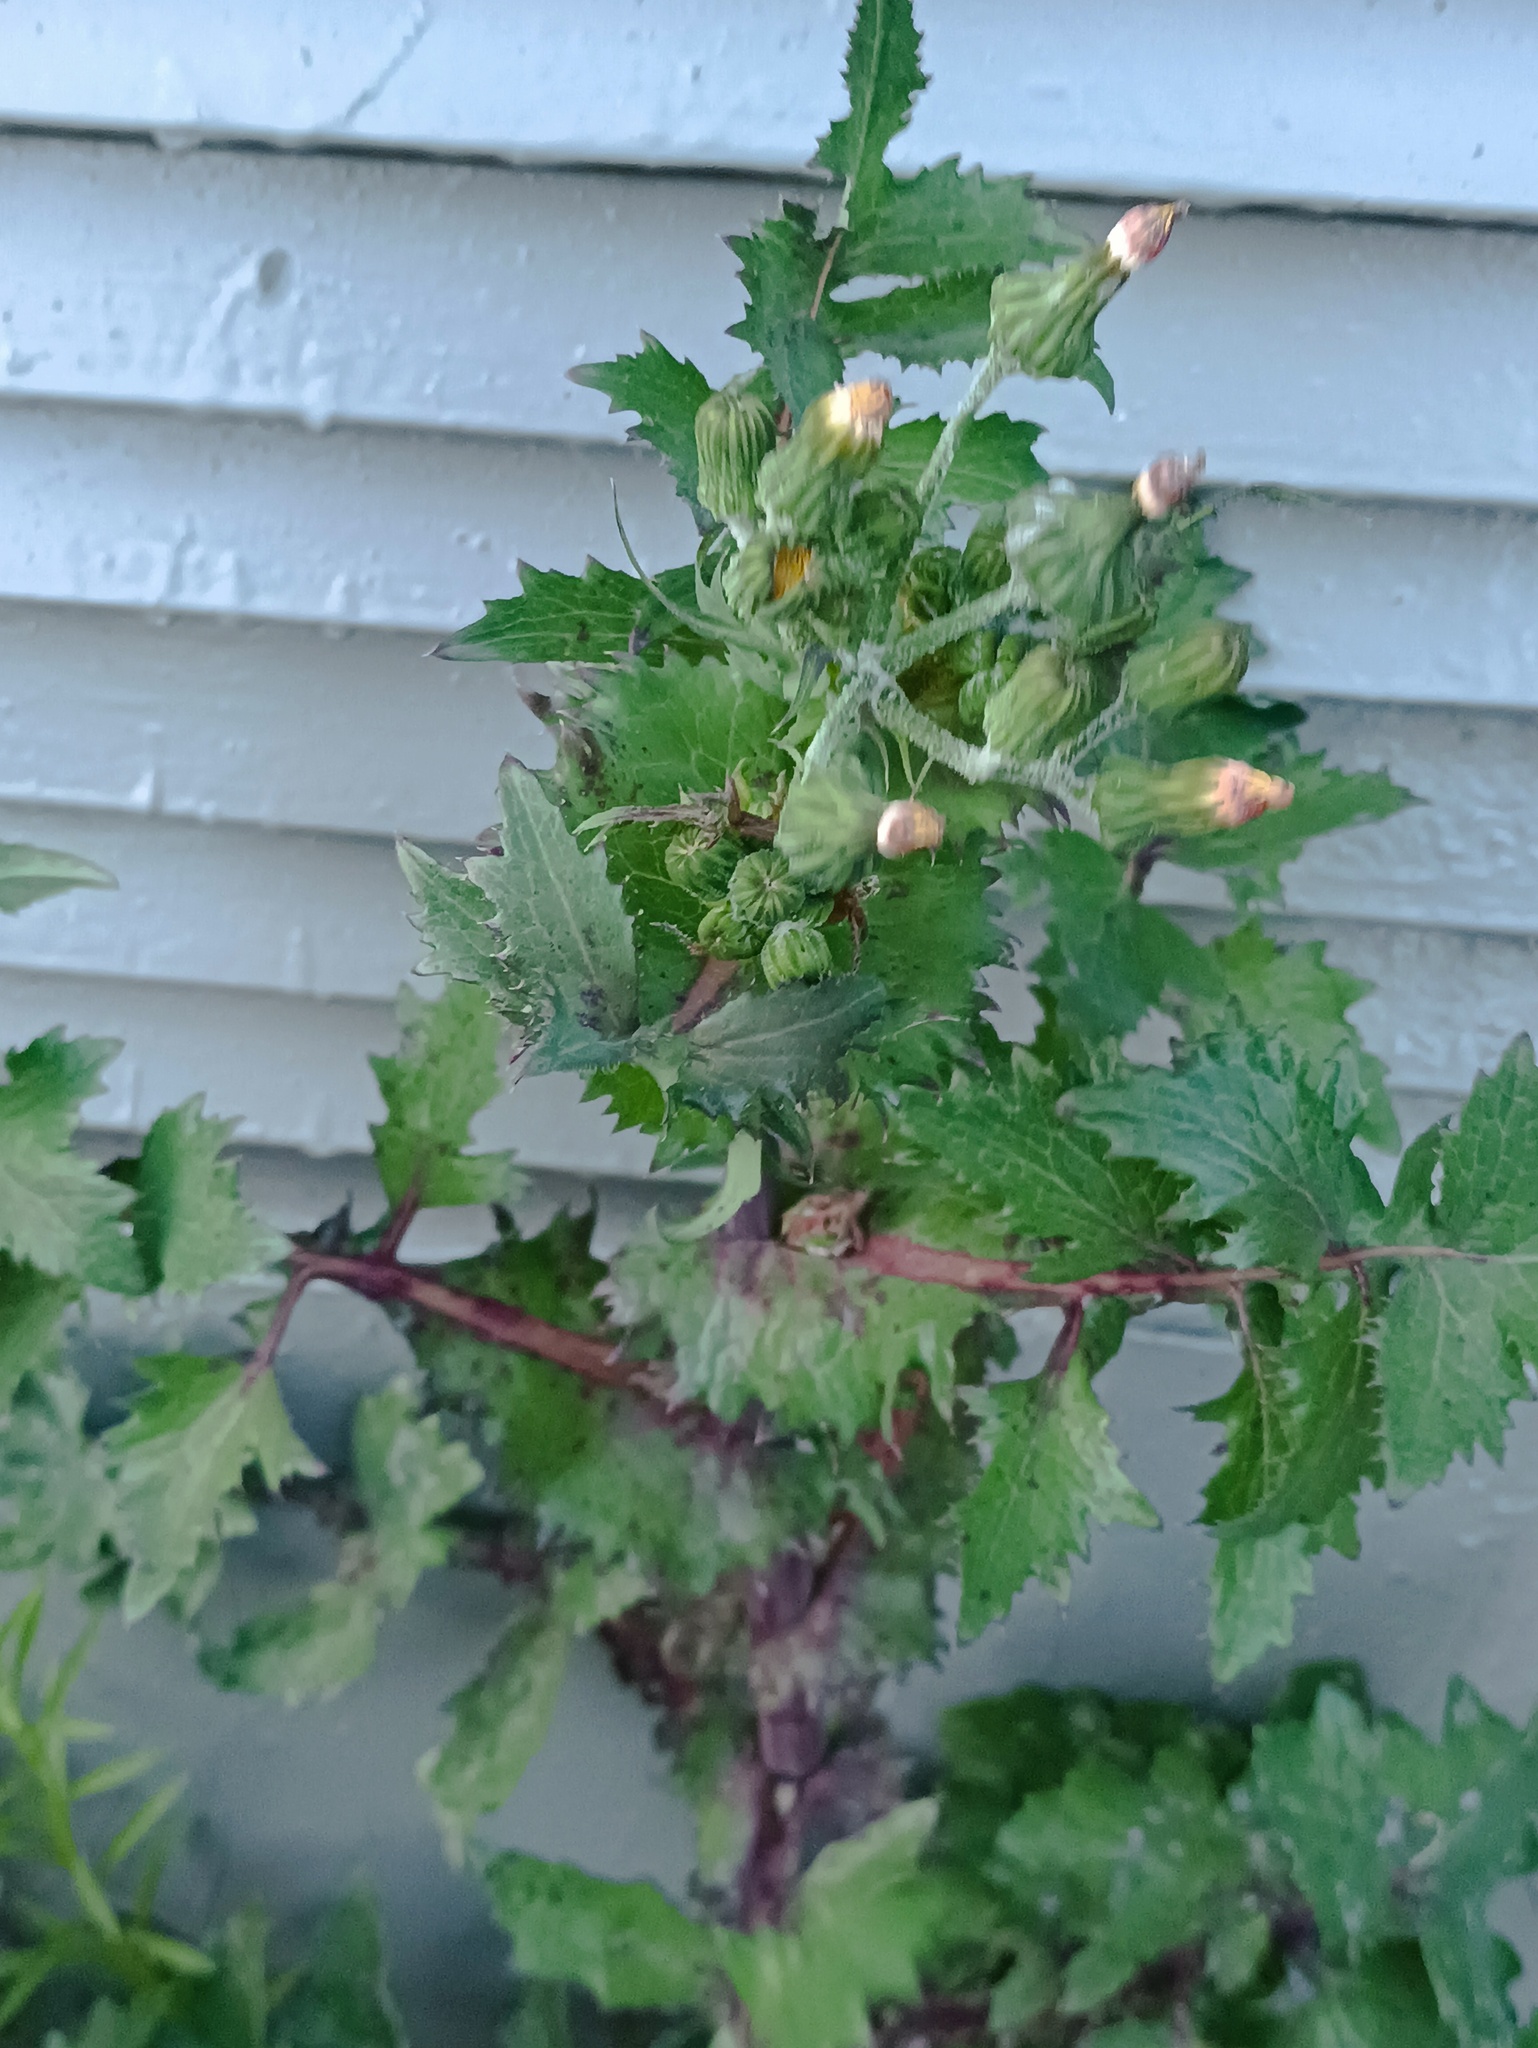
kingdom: Plantae
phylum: Tracheophyta
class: Magnoliopsida
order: Asterales
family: Asteraceae
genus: Sonchus
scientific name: Sonchus oleraceus
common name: Common sowthistle
